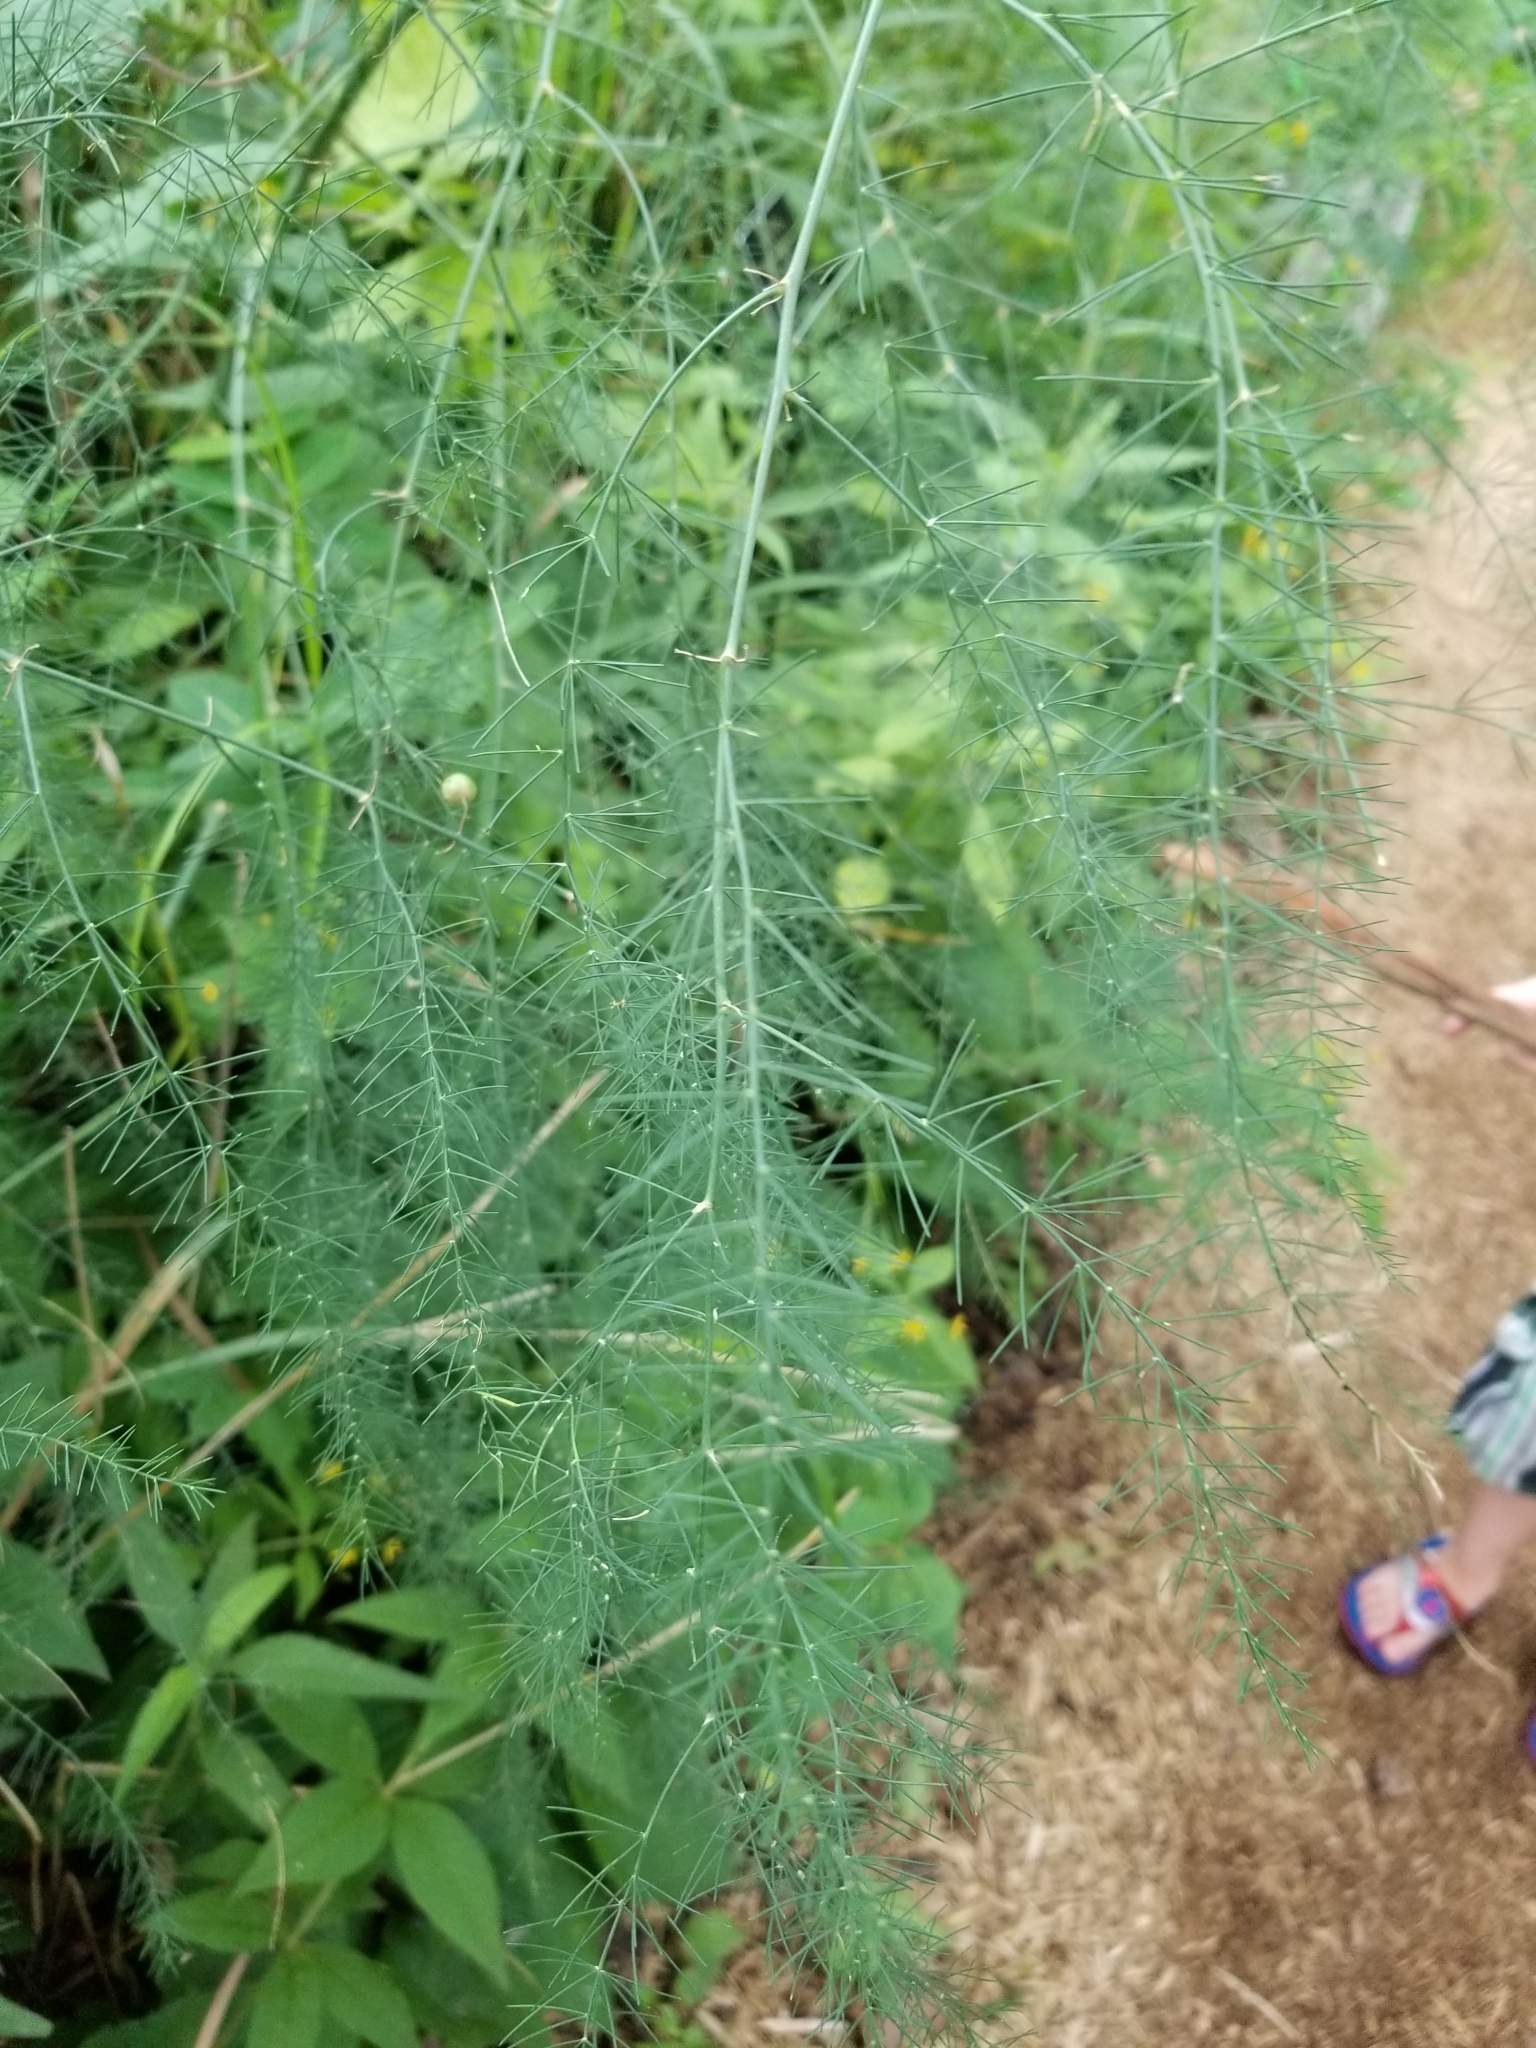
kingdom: Plantae
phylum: Tracheophyta
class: Liliopsida
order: Asparagales
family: Asparagaceae
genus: Asparagus
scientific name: Asparagus officinalis
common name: Garden asparagus
